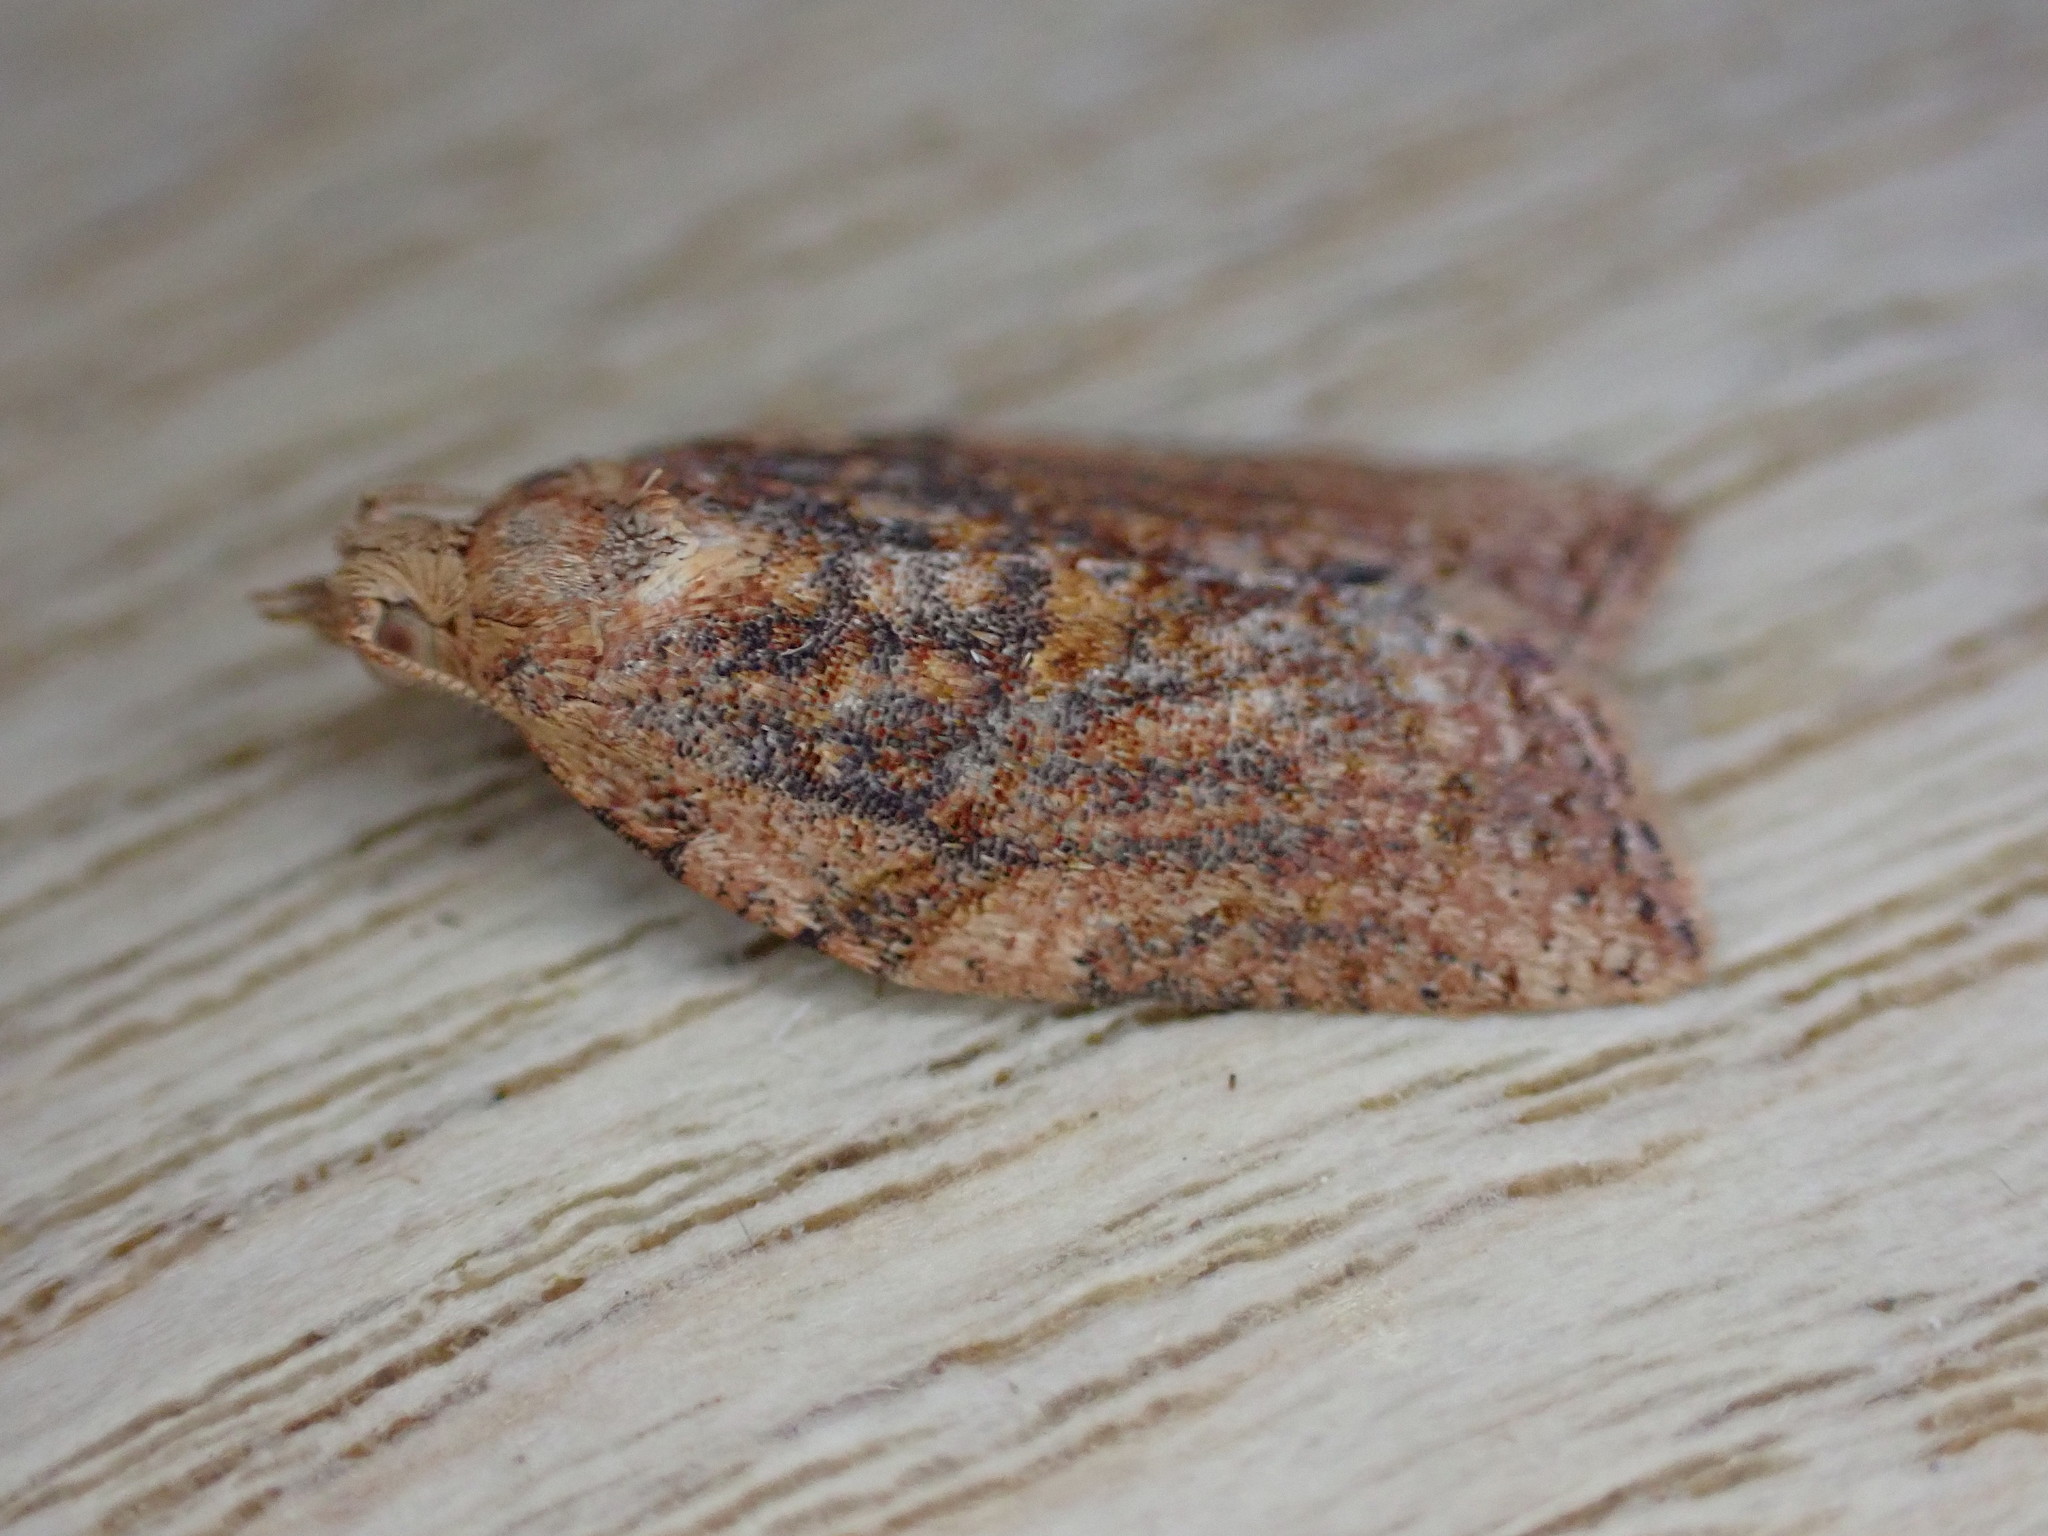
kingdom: Animalia
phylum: Arthropoda
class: Insecta
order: Lepidoptera
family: Tortricidae
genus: Clepsis
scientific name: Clepsis consimilana
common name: Privet tortrix
